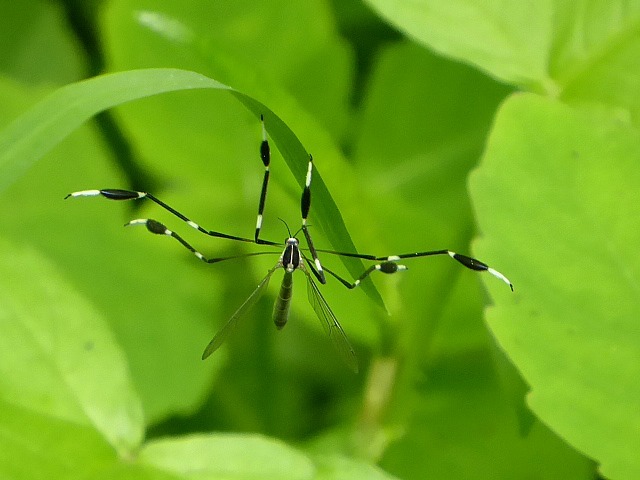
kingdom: Animalia
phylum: Arthropoda
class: Insecta
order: Diptera
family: Ptychopteridae
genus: Bittacomorpha
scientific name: Bittacomorpha clavipes
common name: Eastern phantom crane fly
